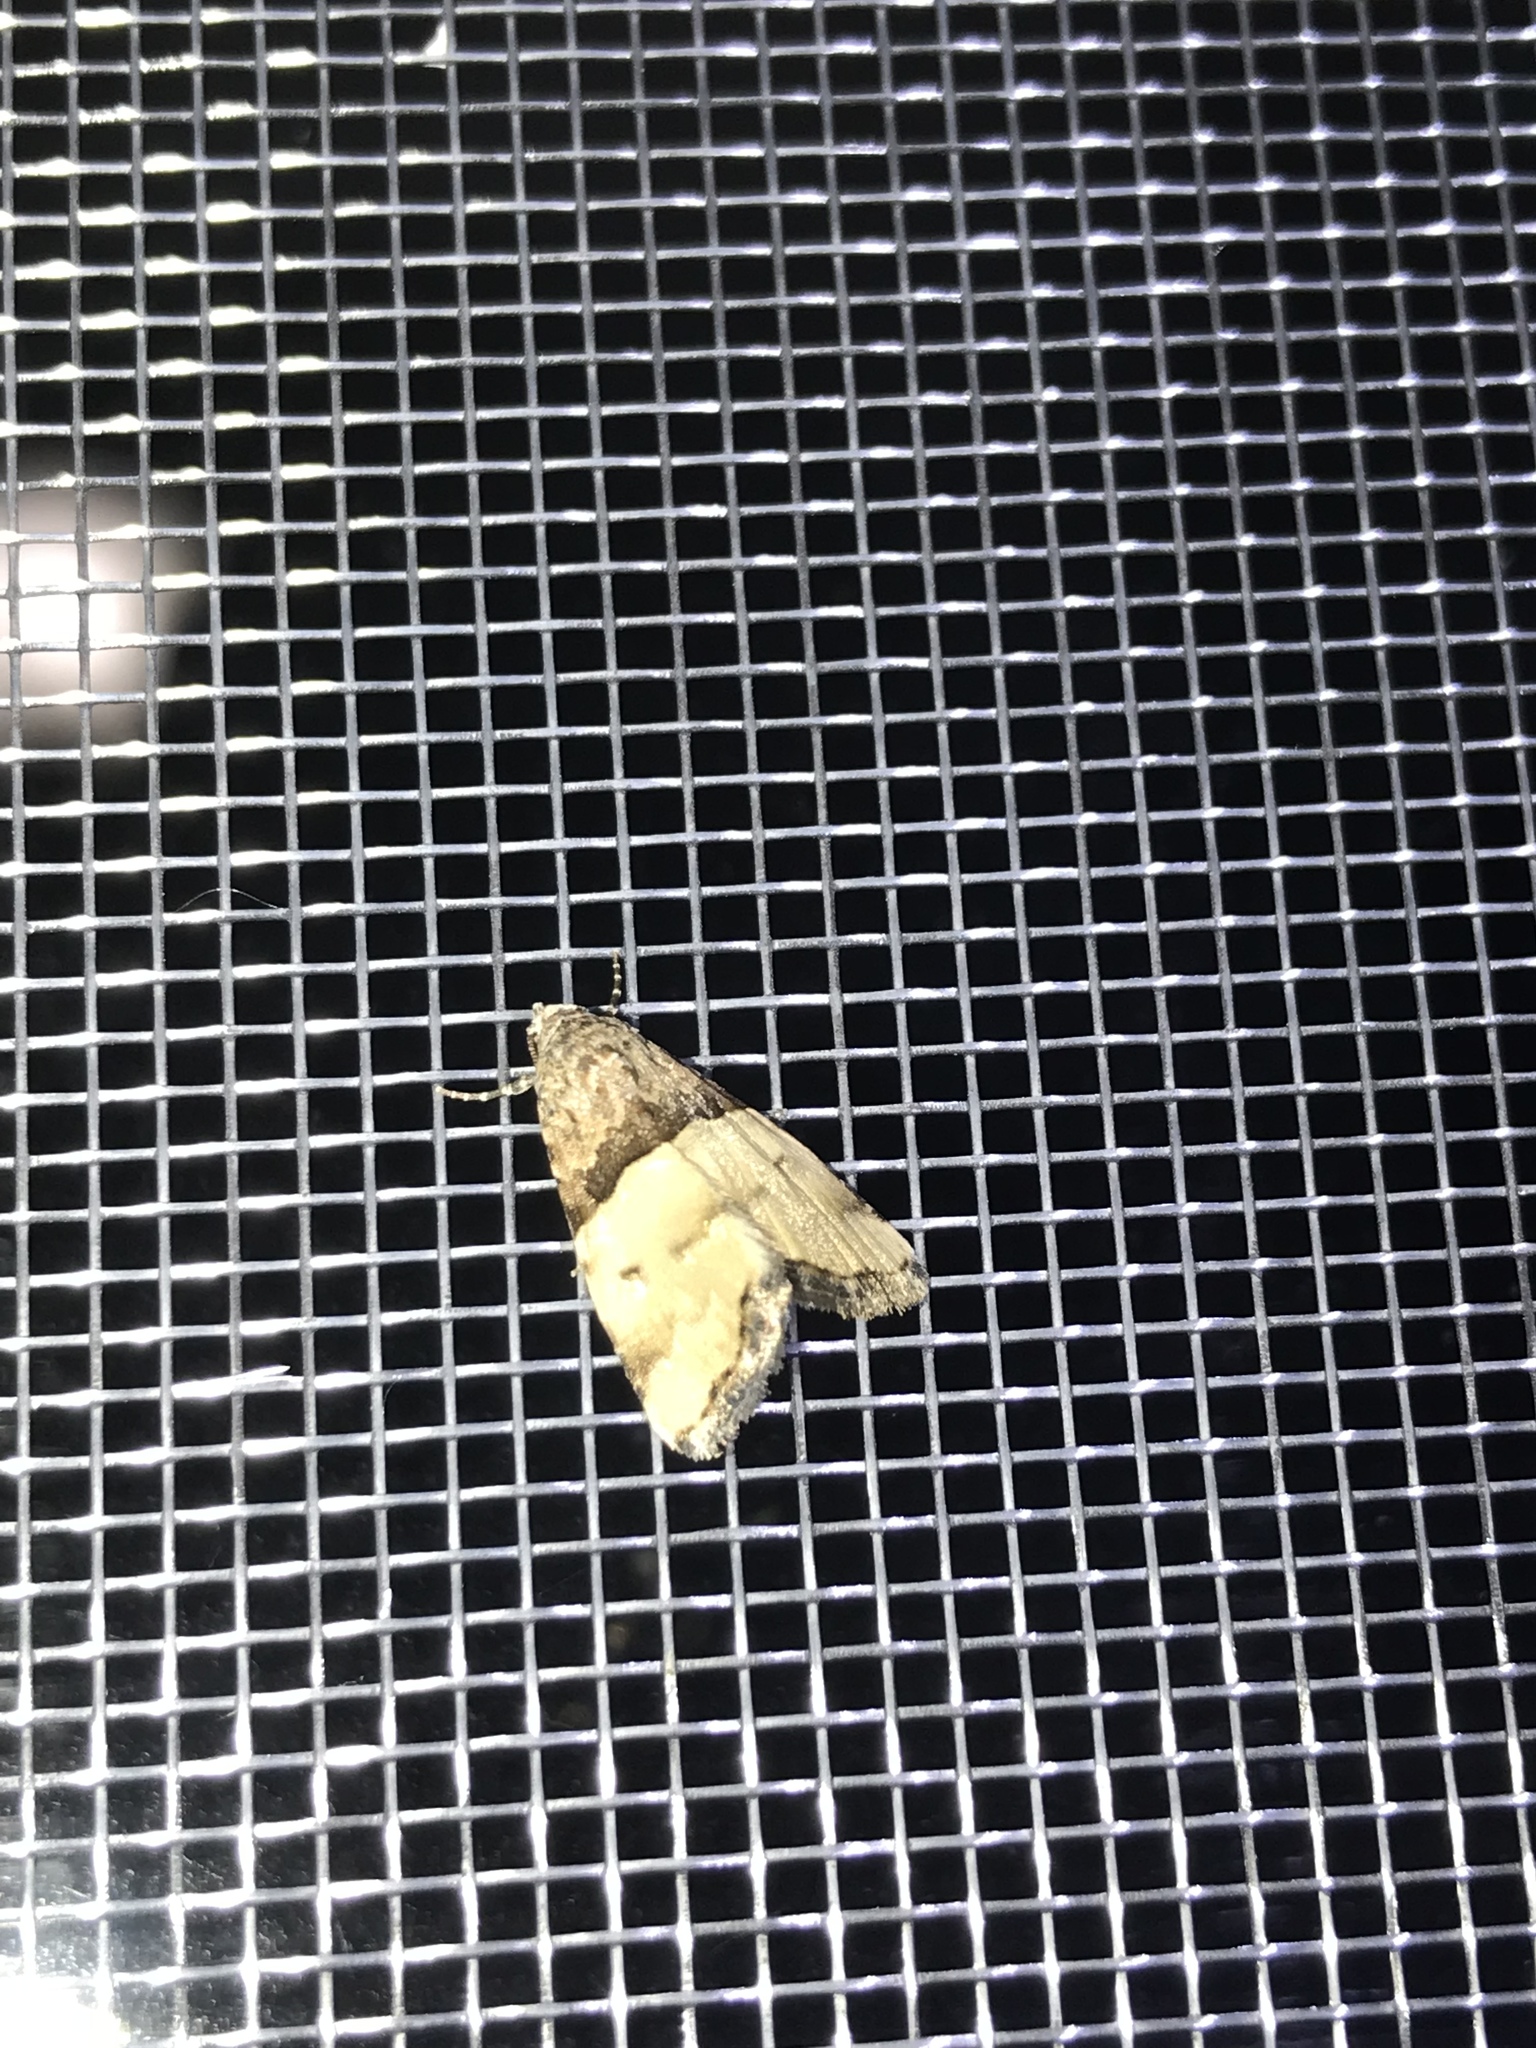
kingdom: Animalia
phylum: Arthropoda
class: Insecta
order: Lepidoptera
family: Noctuidae
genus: Cobubatha
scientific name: Cobubatha dividua
